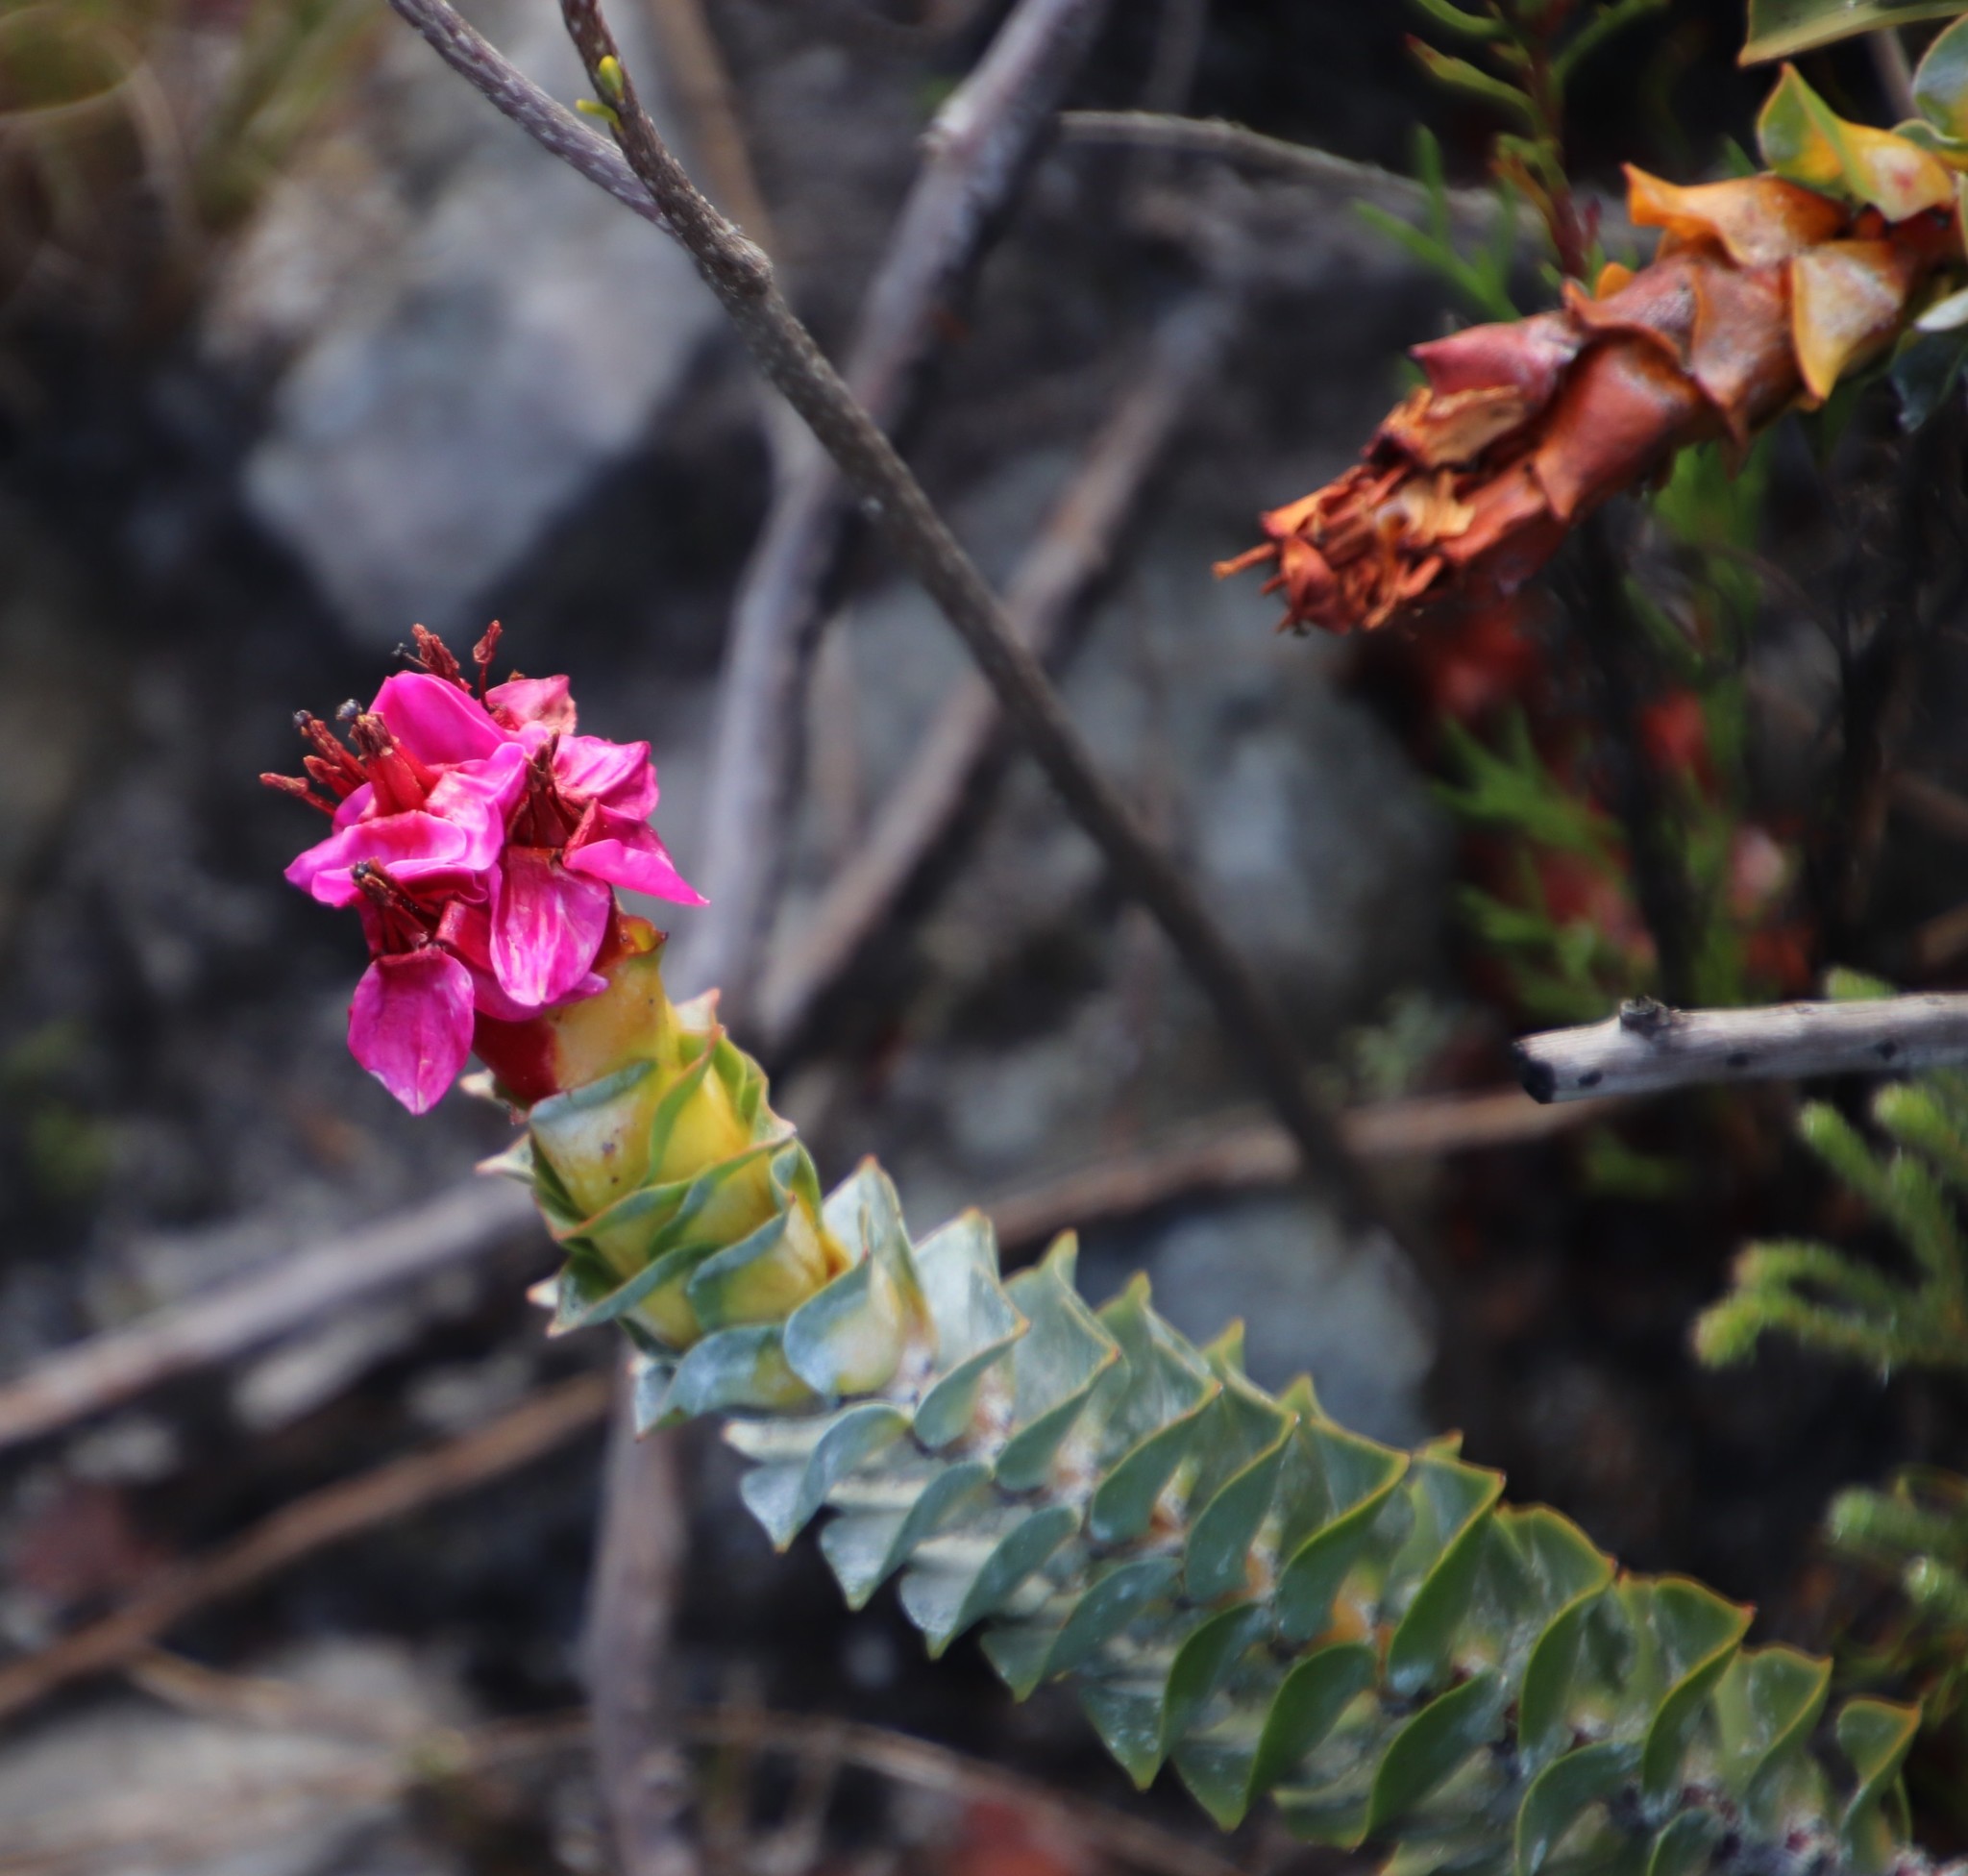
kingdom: Plantae
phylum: Tracheophyta
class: Magnoliopsida
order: Myrtales
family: Penaeaceae
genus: Saltera
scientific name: Saltera sarcocolla
